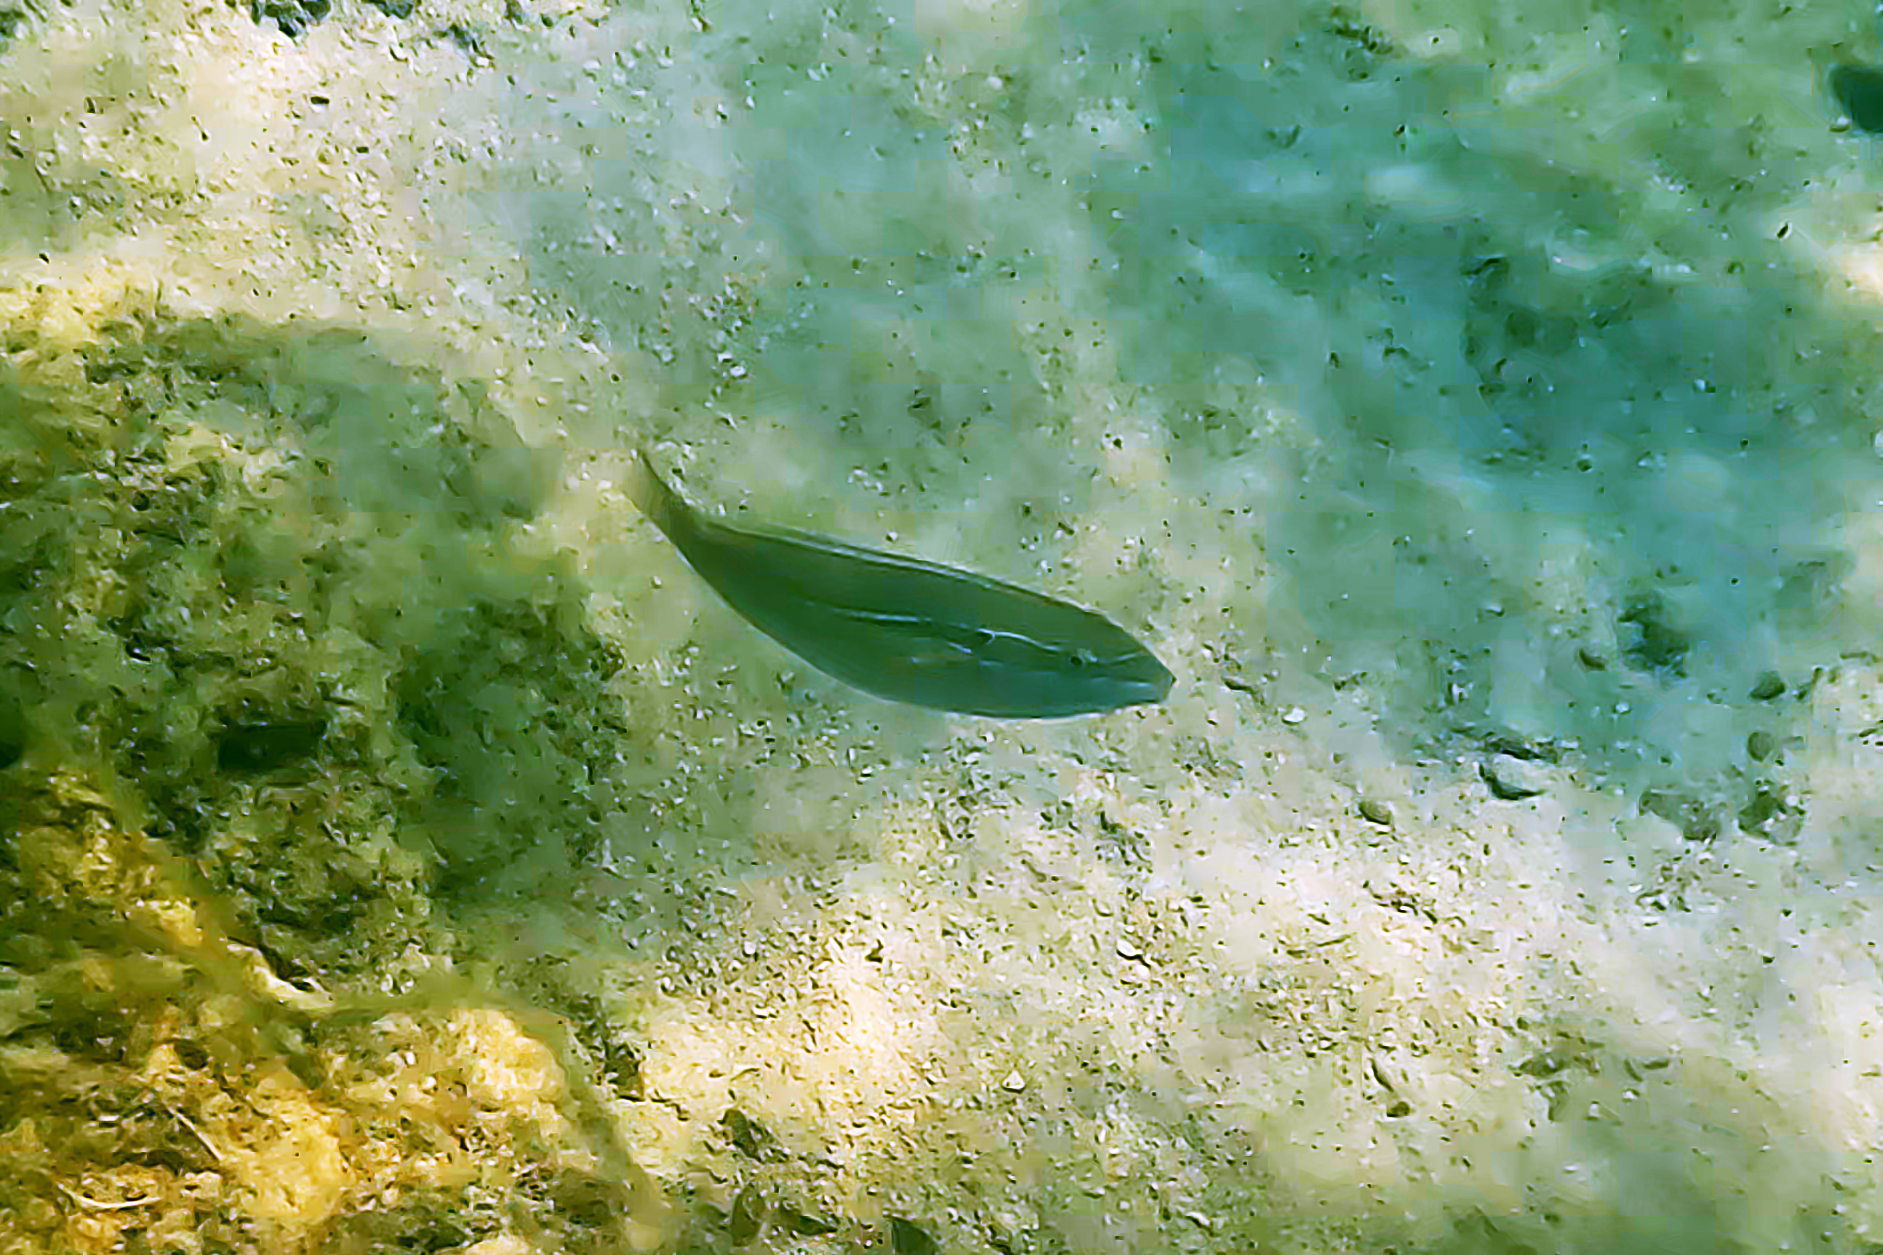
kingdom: Animalia
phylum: Chordata
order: Perciformes
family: Labridae
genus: Stethojulis
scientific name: Stethojulis strigiventer
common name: Three-ribbon wrasse
